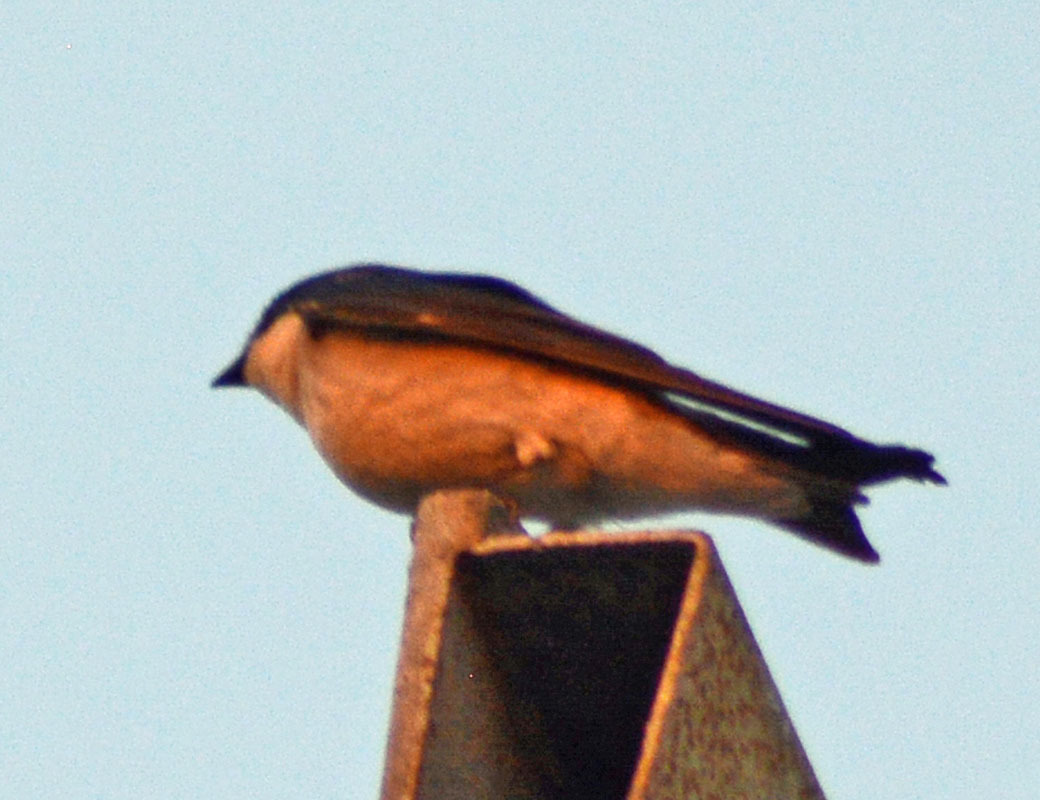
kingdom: Animalia
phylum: Chordata
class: Aves
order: Passeriformes
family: Hirundinidae
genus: Tachycineta
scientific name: Tachycineta bicolor
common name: Tree swallow
